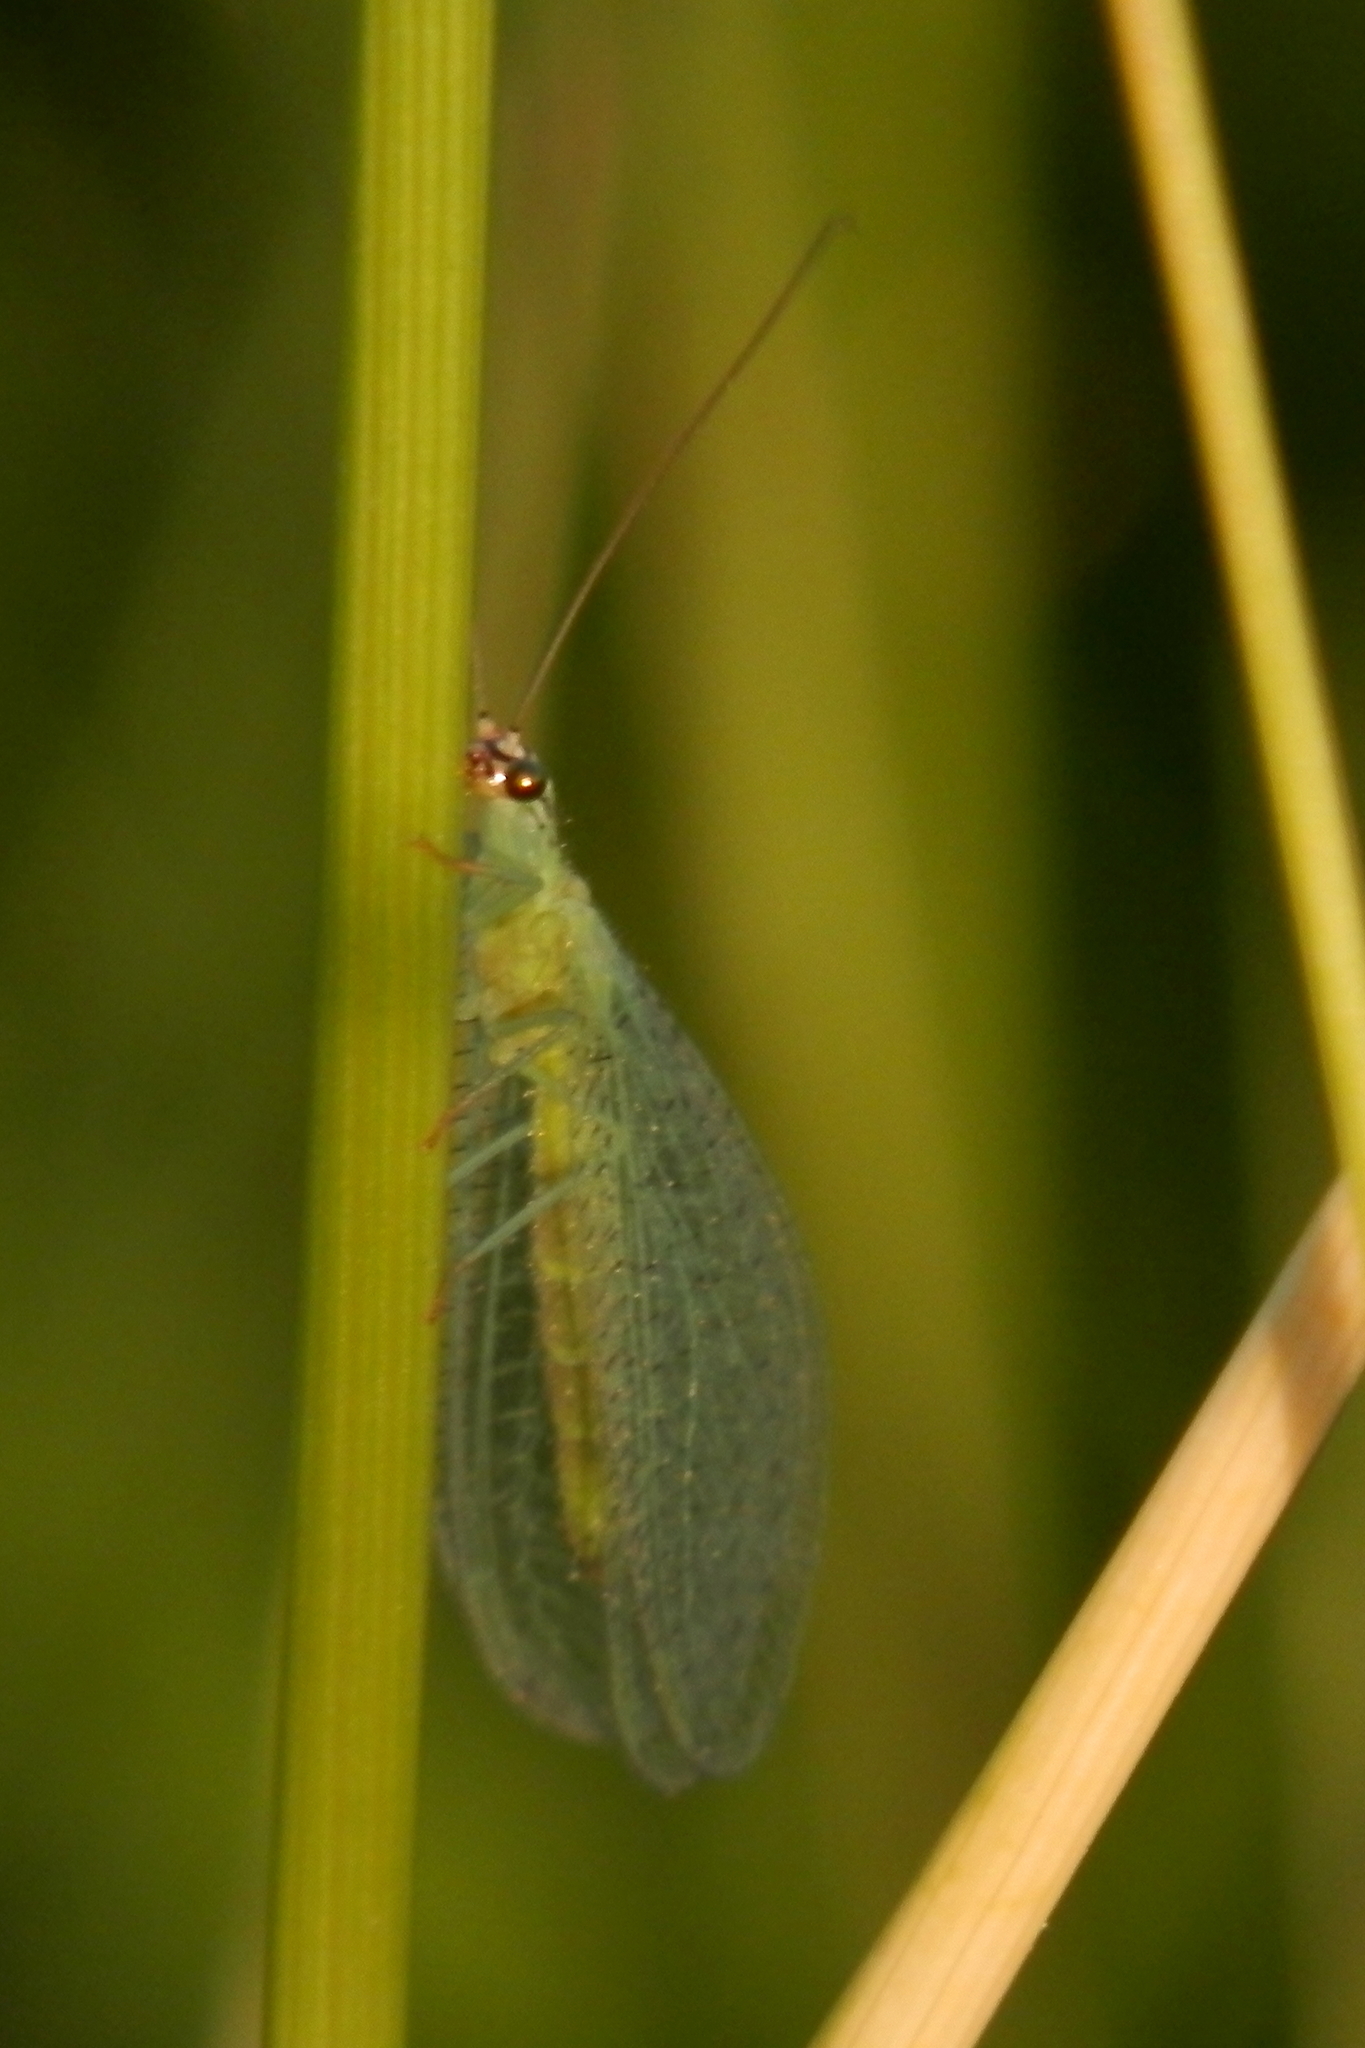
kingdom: Animalia
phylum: Arthropoda
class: Insecta
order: Neuroptera
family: Chrysopidae
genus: Chrysopa
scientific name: Chrysopa oculata
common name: Golden-eyed lacewing
